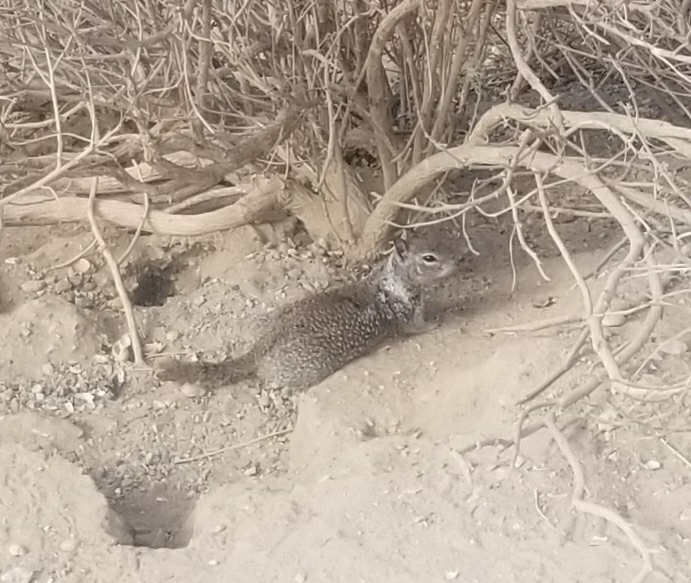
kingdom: Animalia
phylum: Chordata
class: Mammalia
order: Rodentia
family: Sciuridae
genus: Otospermophilus
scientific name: Otospermophilus beecheyi
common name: California ground squirrel
